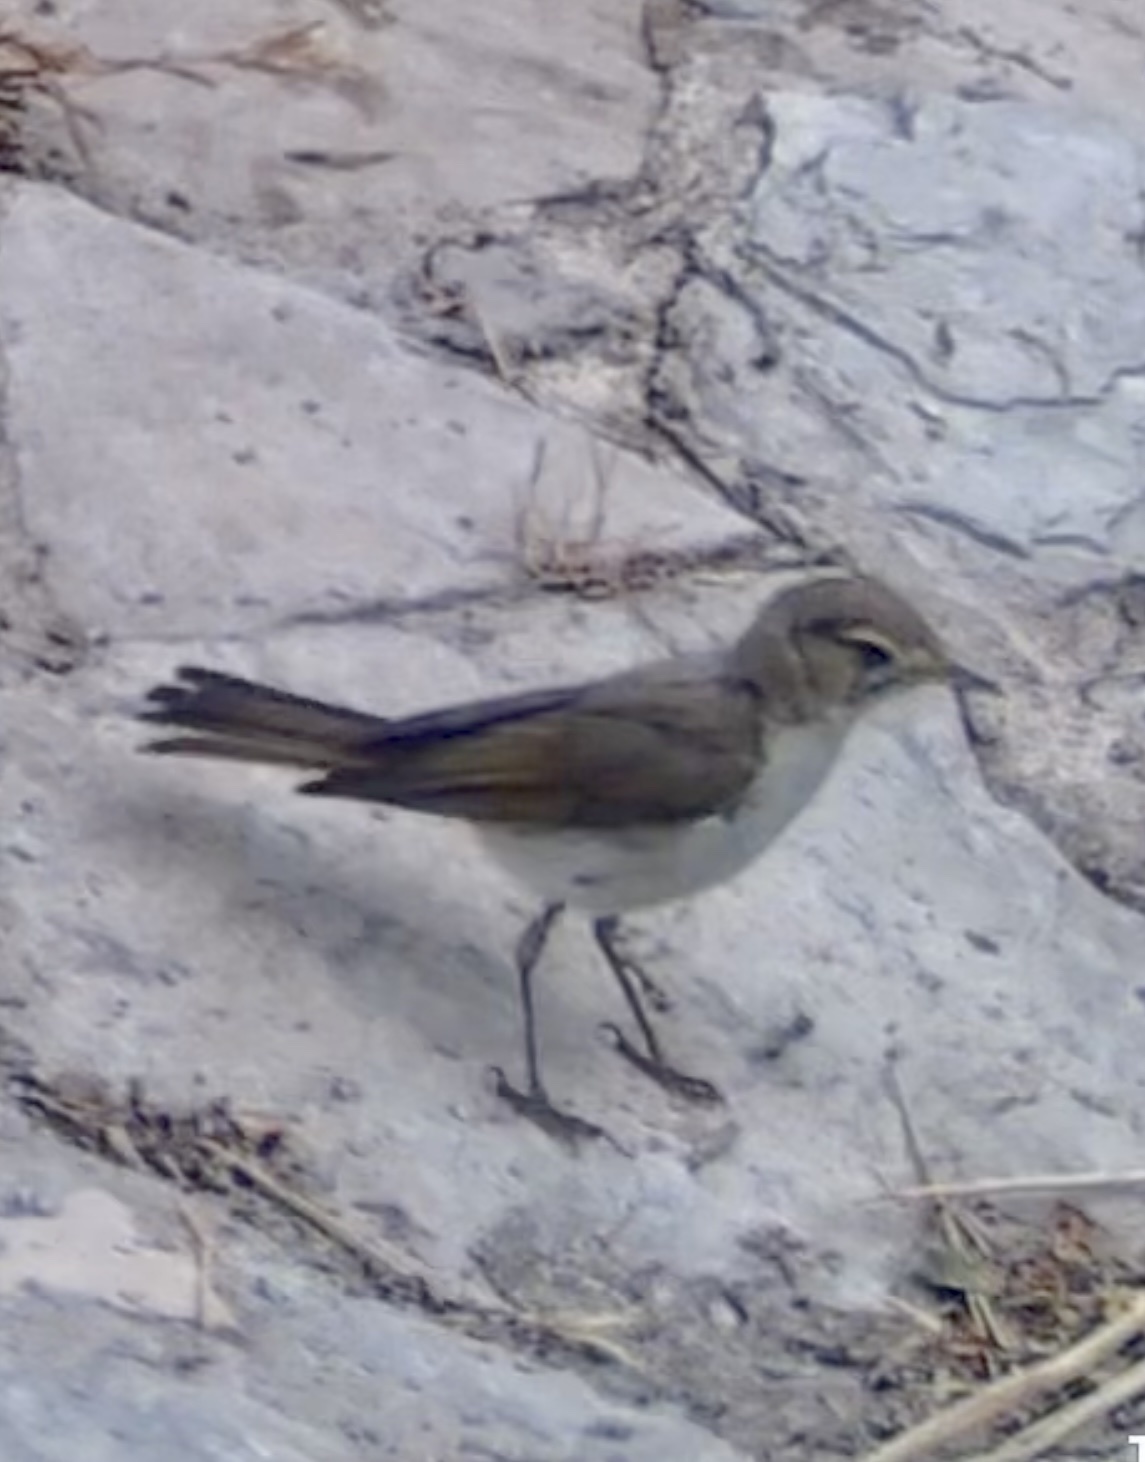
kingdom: Animalia
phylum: Chordata
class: Aves
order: Passeriformes
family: Phylloscopidae
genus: Phylloscopus
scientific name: Phylloscopus bonelli
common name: Western bonelli's warbler
